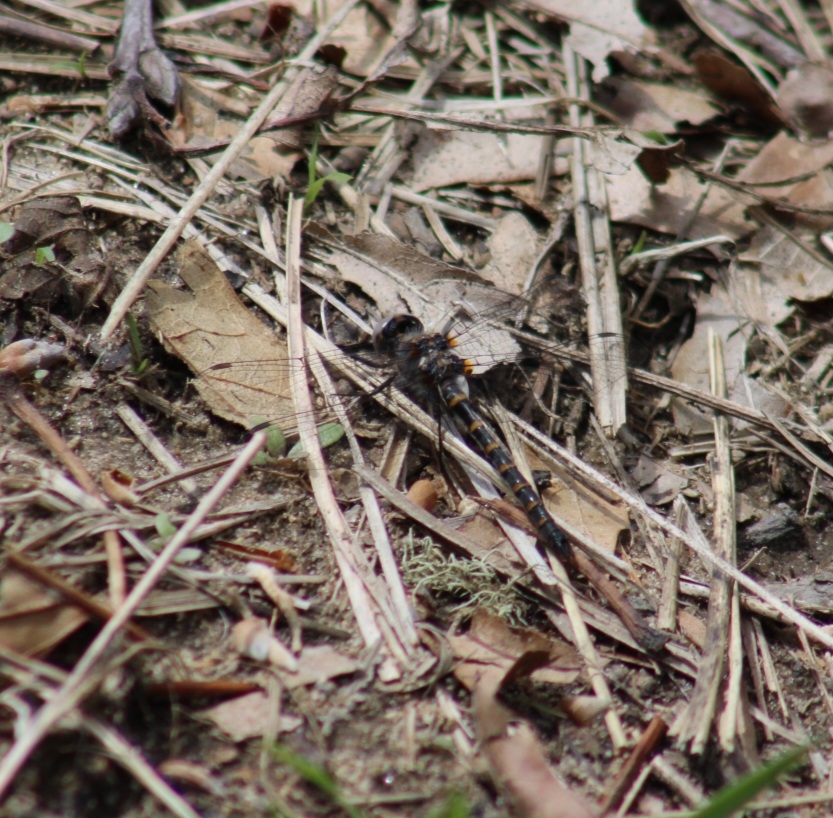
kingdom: Animalia
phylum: Arthropoda
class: Insecta
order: Odonata
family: Corduliidae
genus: Williamsonia
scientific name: Williamsonia lintneri
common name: Ringed boghaunter
